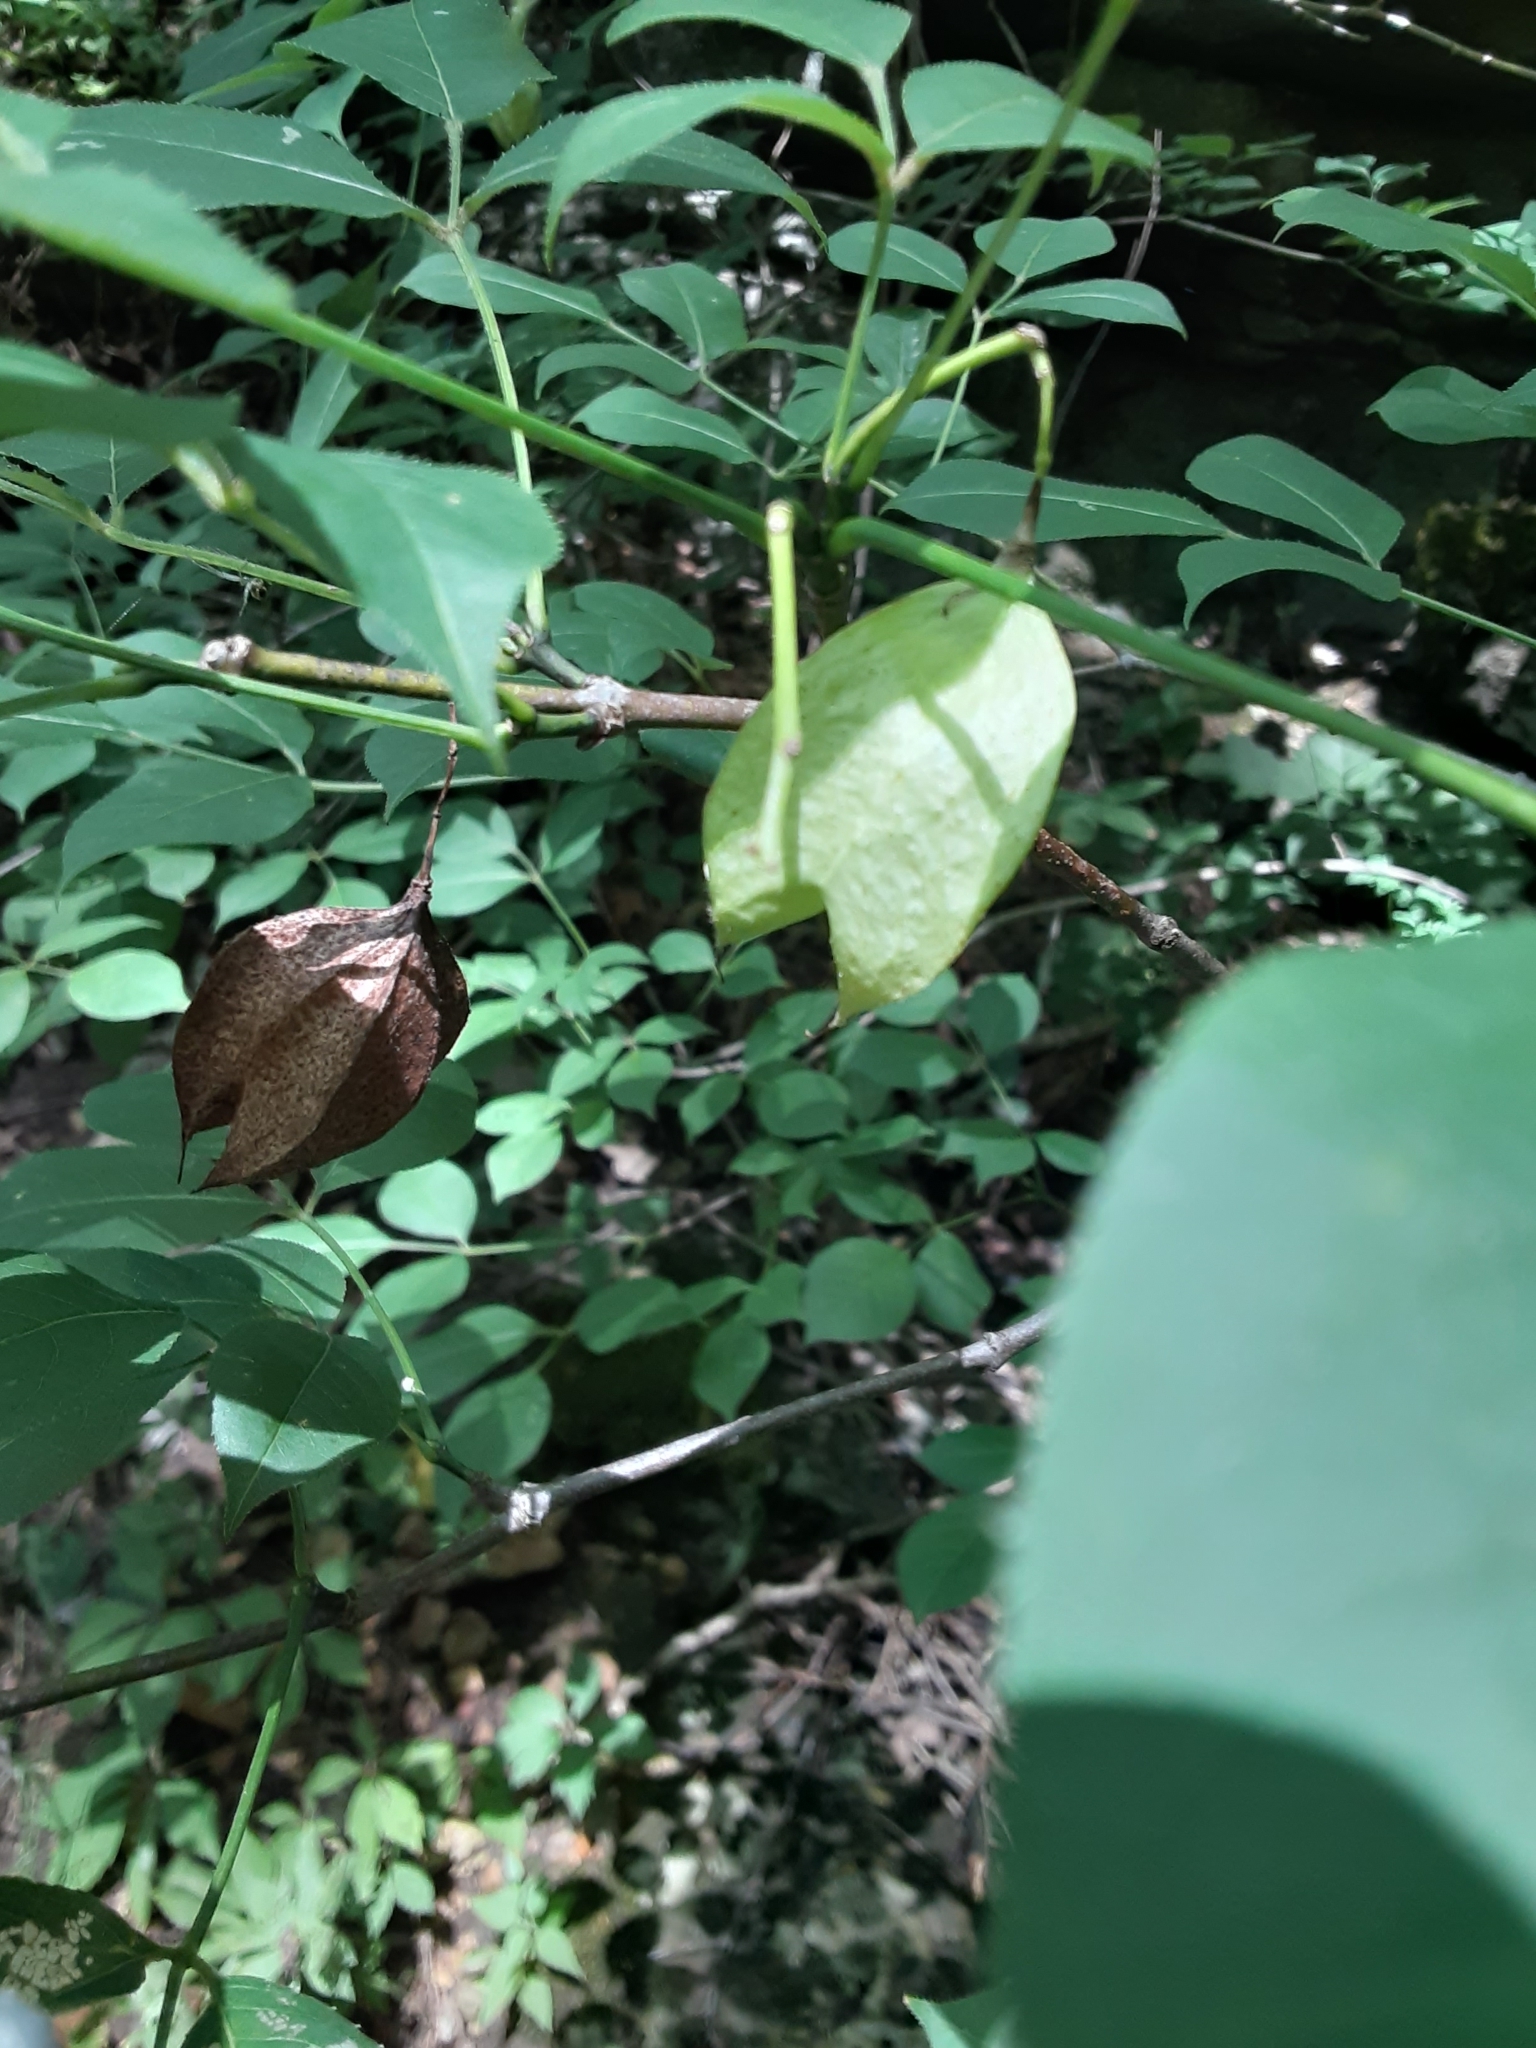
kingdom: Plantae
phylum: Tracheophyta
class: Magnoliopsida
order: Crossosomatales
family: Staphyleaceae
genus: Staphylea
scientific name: Staphylea trifolia
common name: American bladdernut
